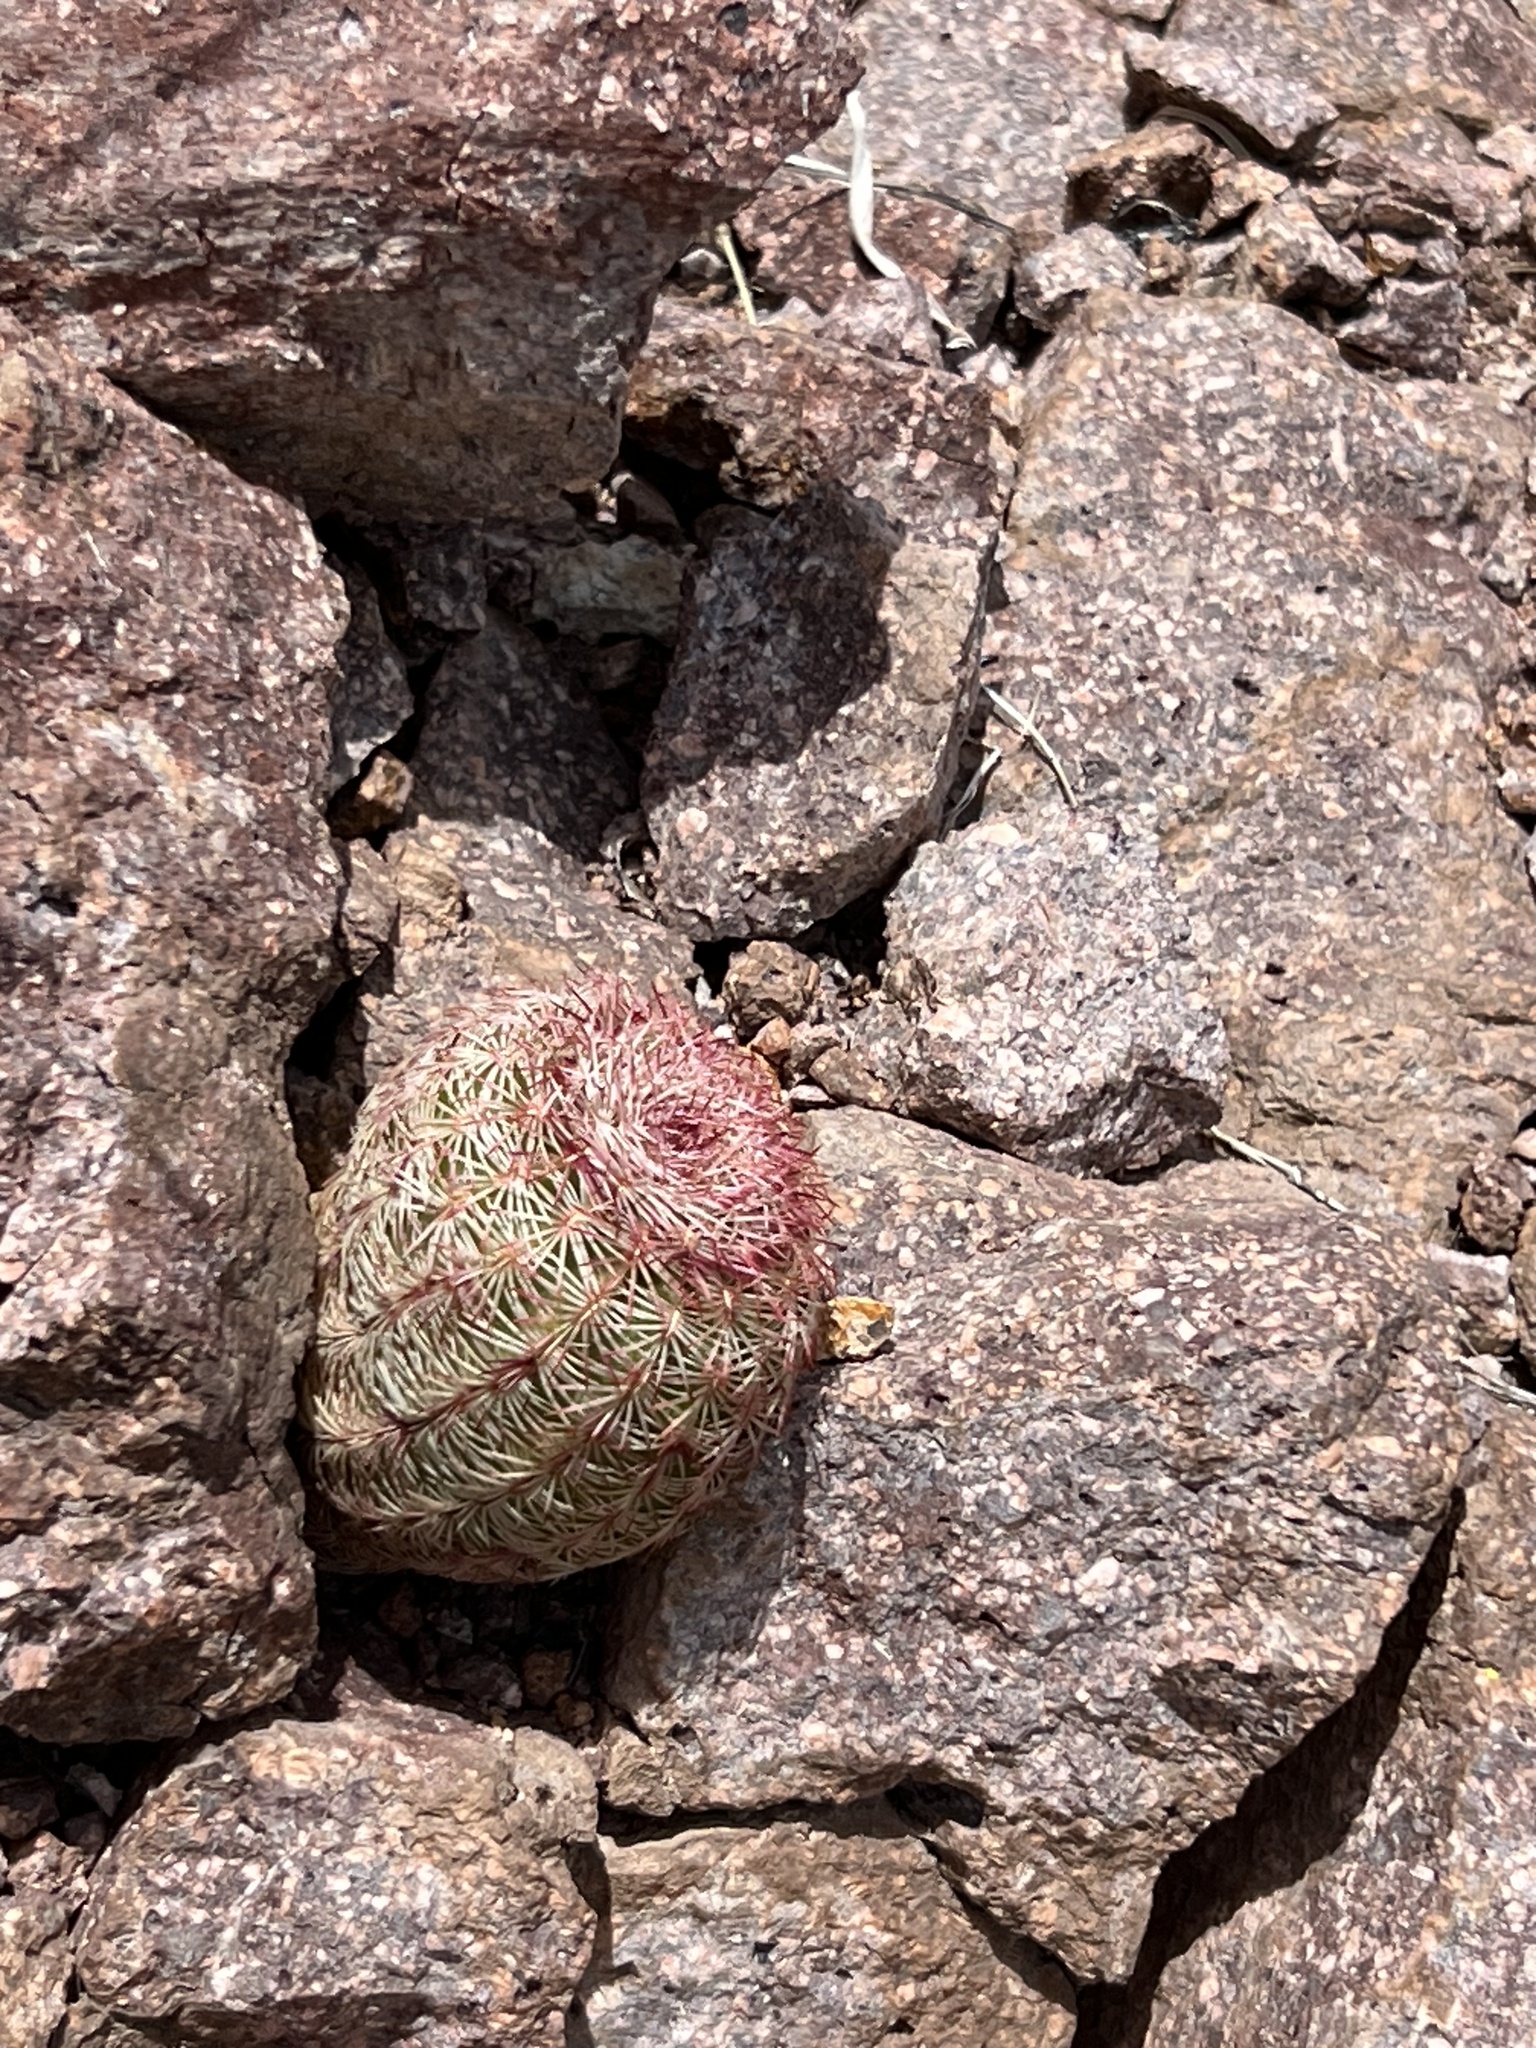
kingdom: Plantae
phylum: Tracheophyta
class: Magnoliopsida
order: Caryophyllales
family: Cactaceae
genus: Echinocereus
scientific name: Echinocereus rigidissimus
